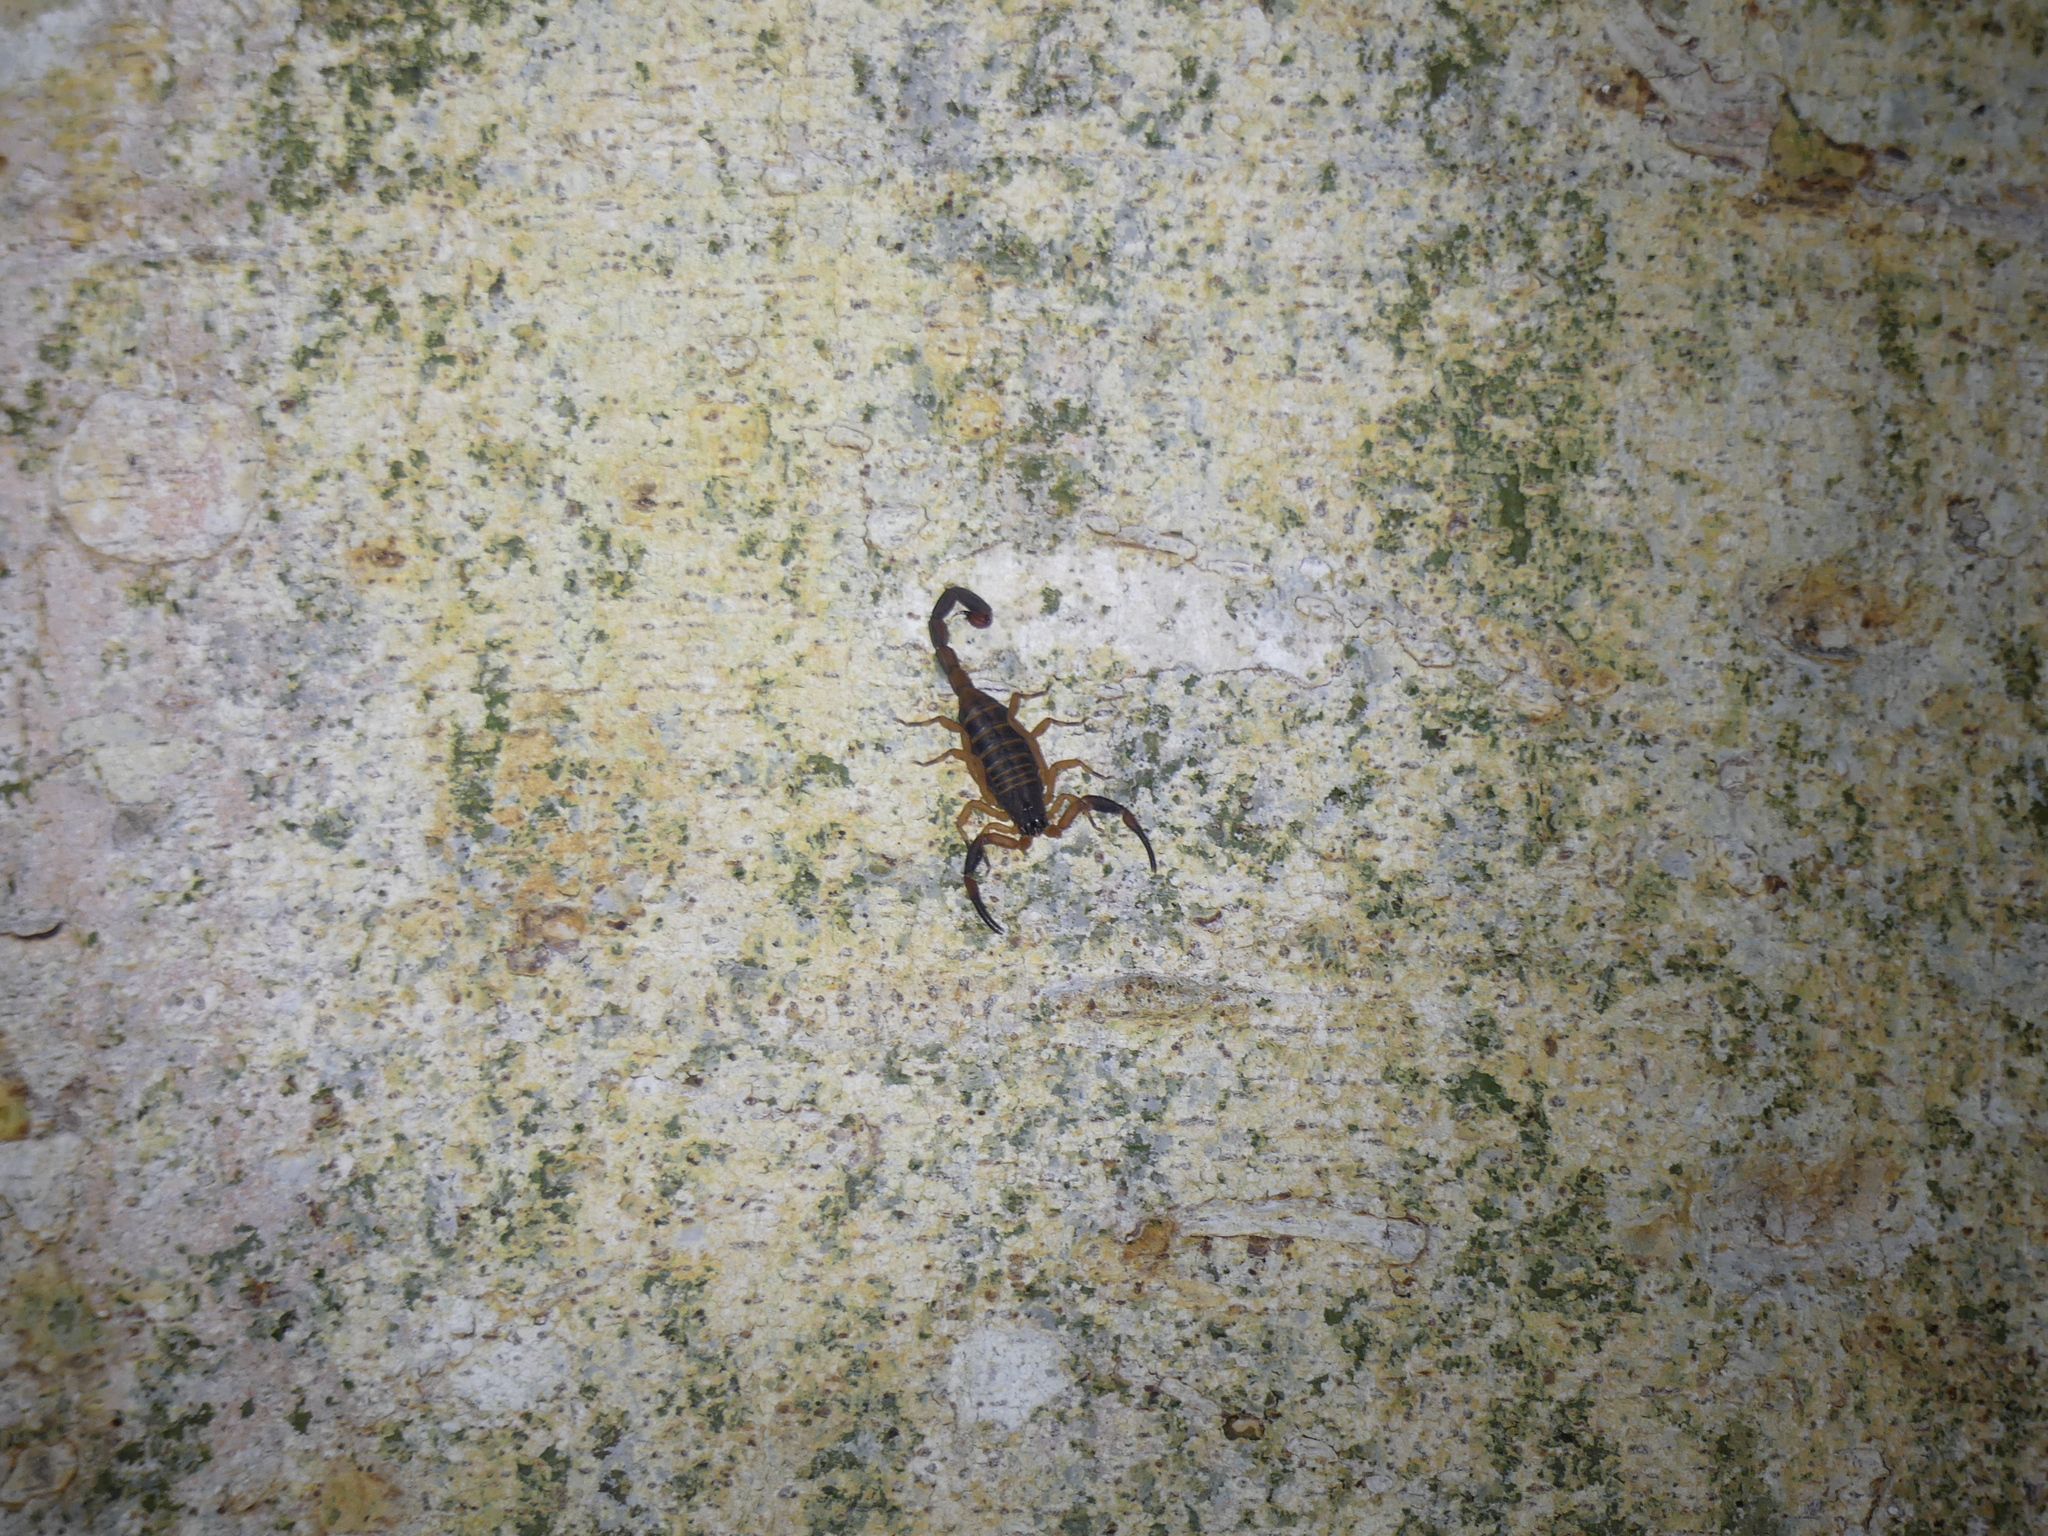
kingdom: Animalia
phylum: Arthropoda
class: Arachnida
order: Scorpiones
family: Buthidae
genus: Babycurus
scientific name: Babycurus gigas
